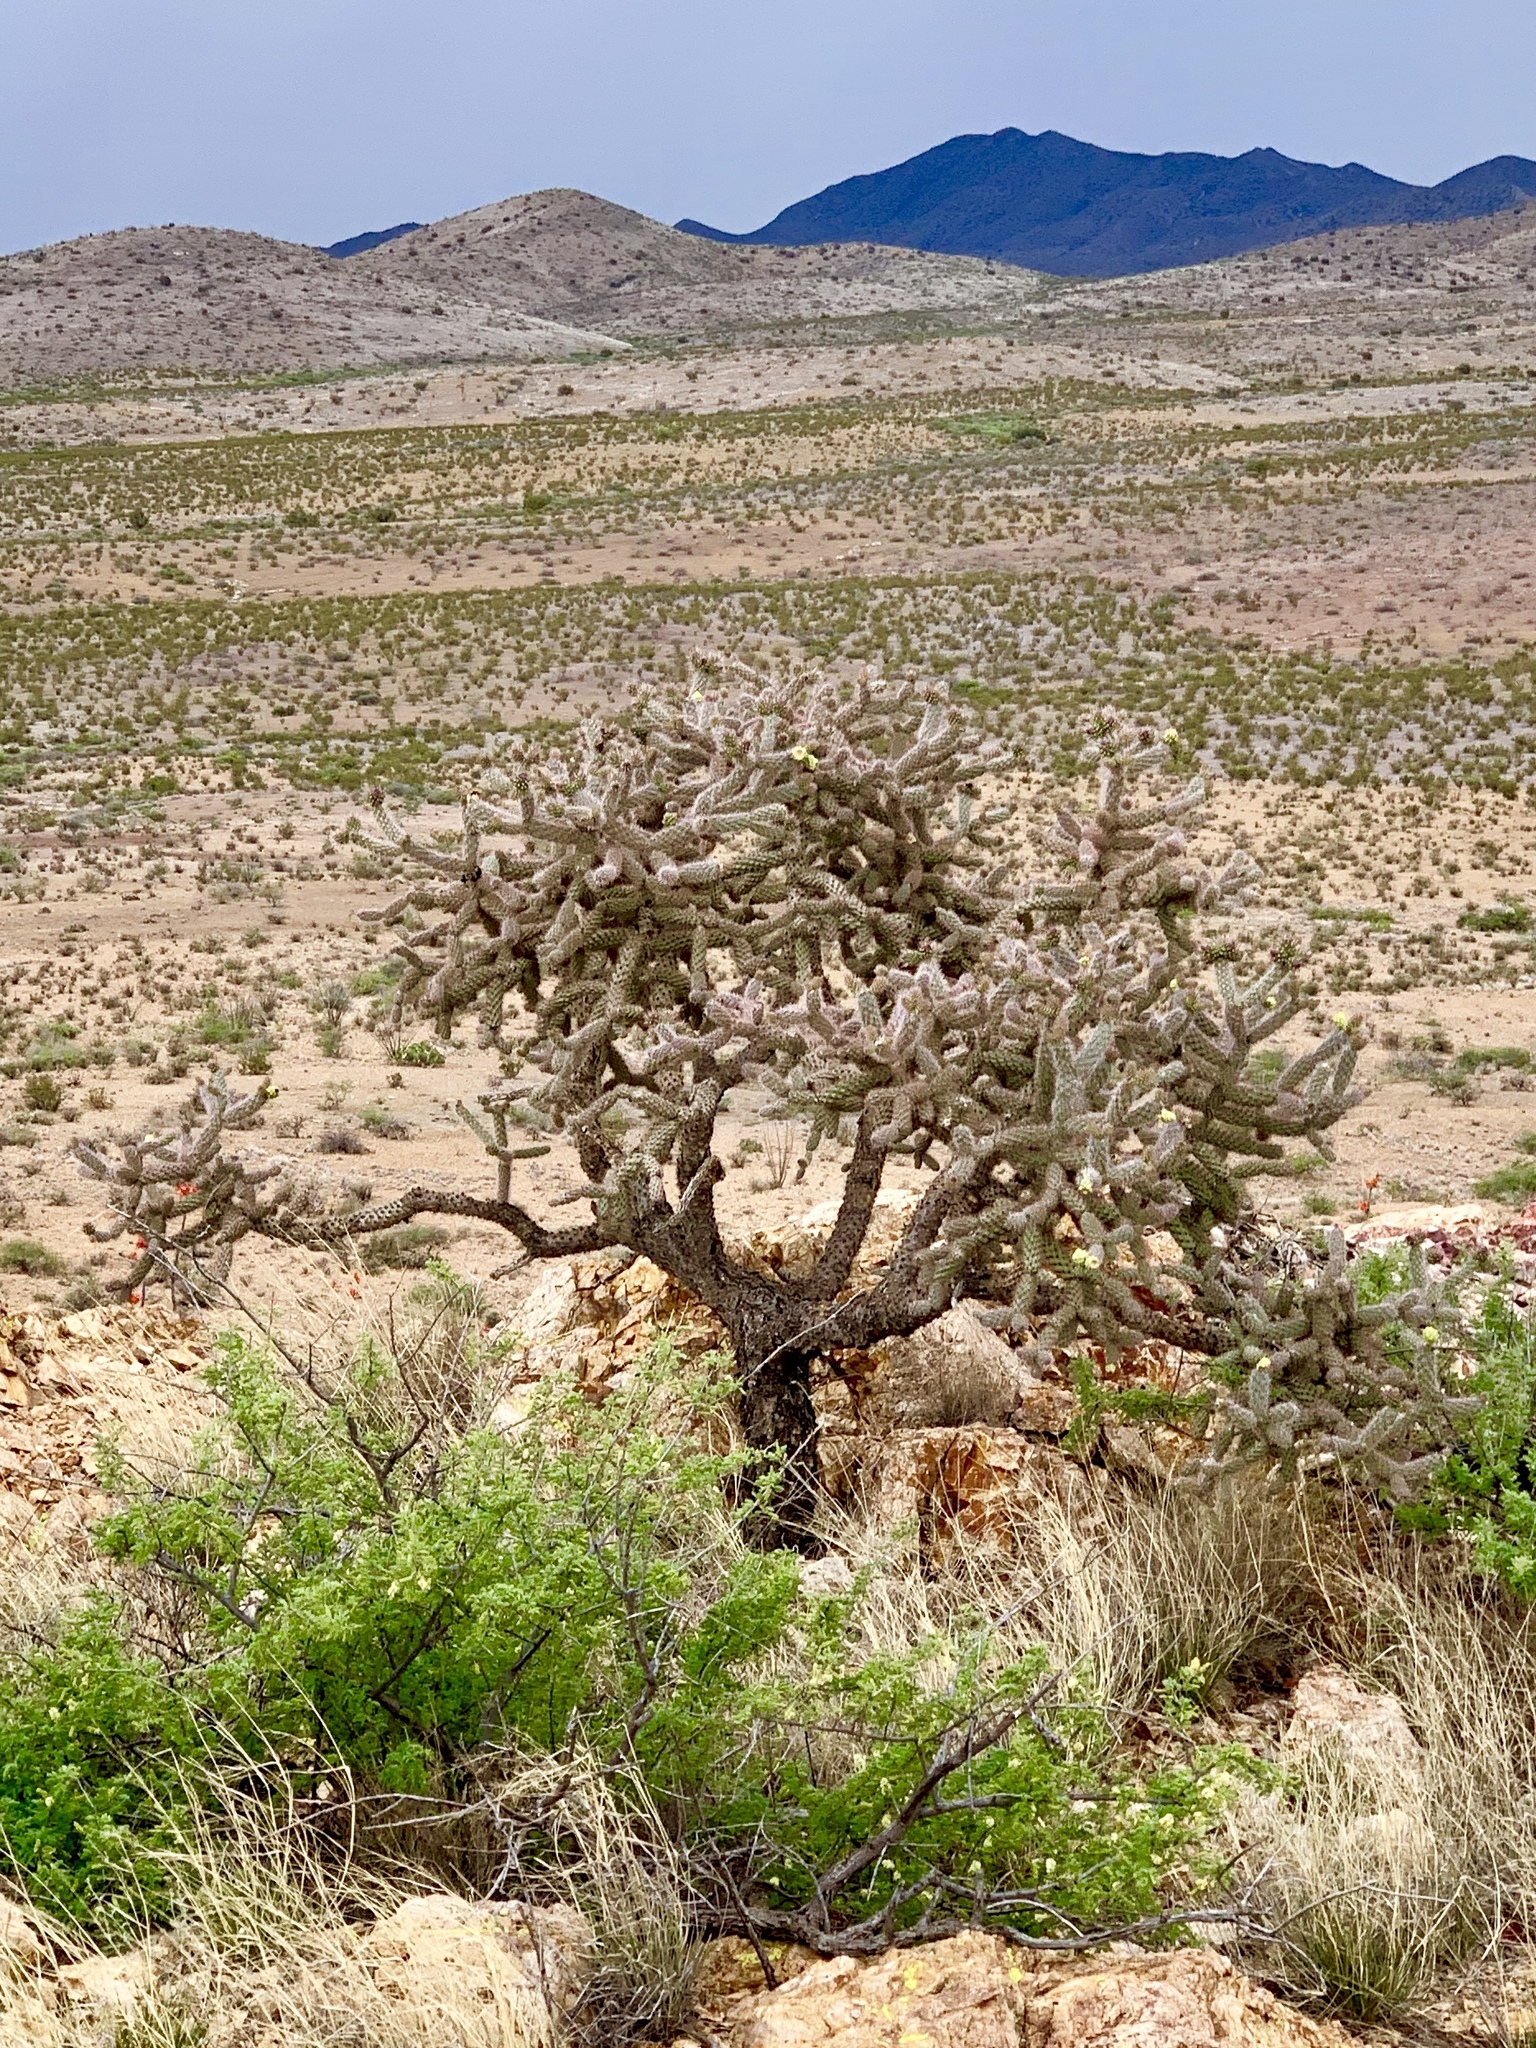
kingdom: Plantae
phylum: Tracheophyta
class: Magnoliopsida
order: Caryophyllales
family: Cactaceae
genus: Cylindropuntia
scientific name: Cylindropuntia imbricata
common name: Candelabrum cactus
